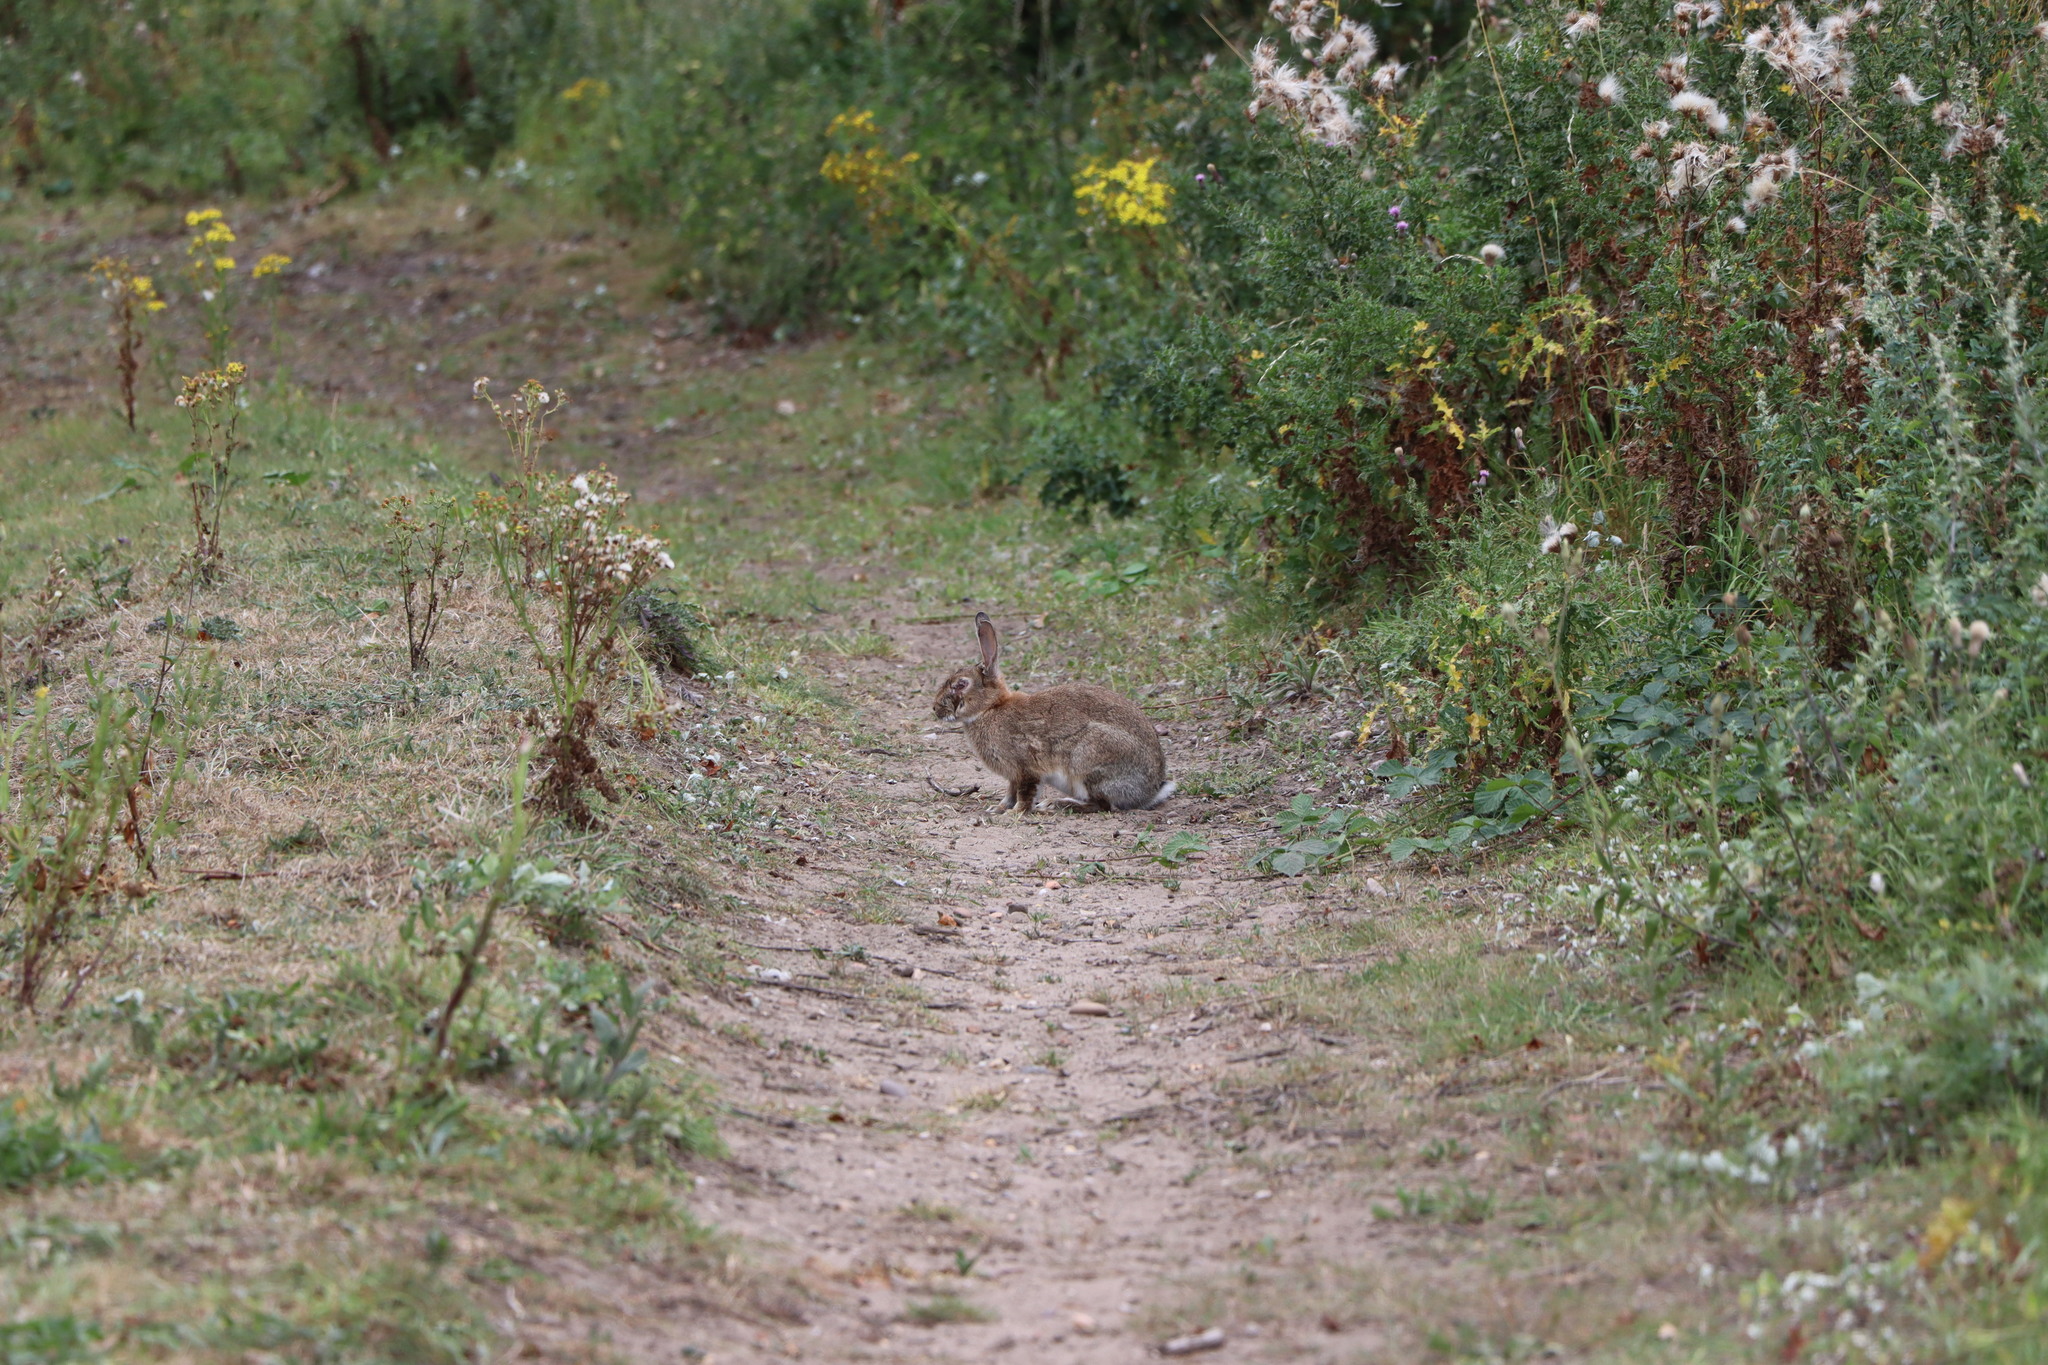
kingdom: Animalia
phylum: Chordata
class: Mammalia
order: Lagomorpha
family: Leporidae
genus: Lepus
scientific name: Lepus europaeus
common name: European hare
